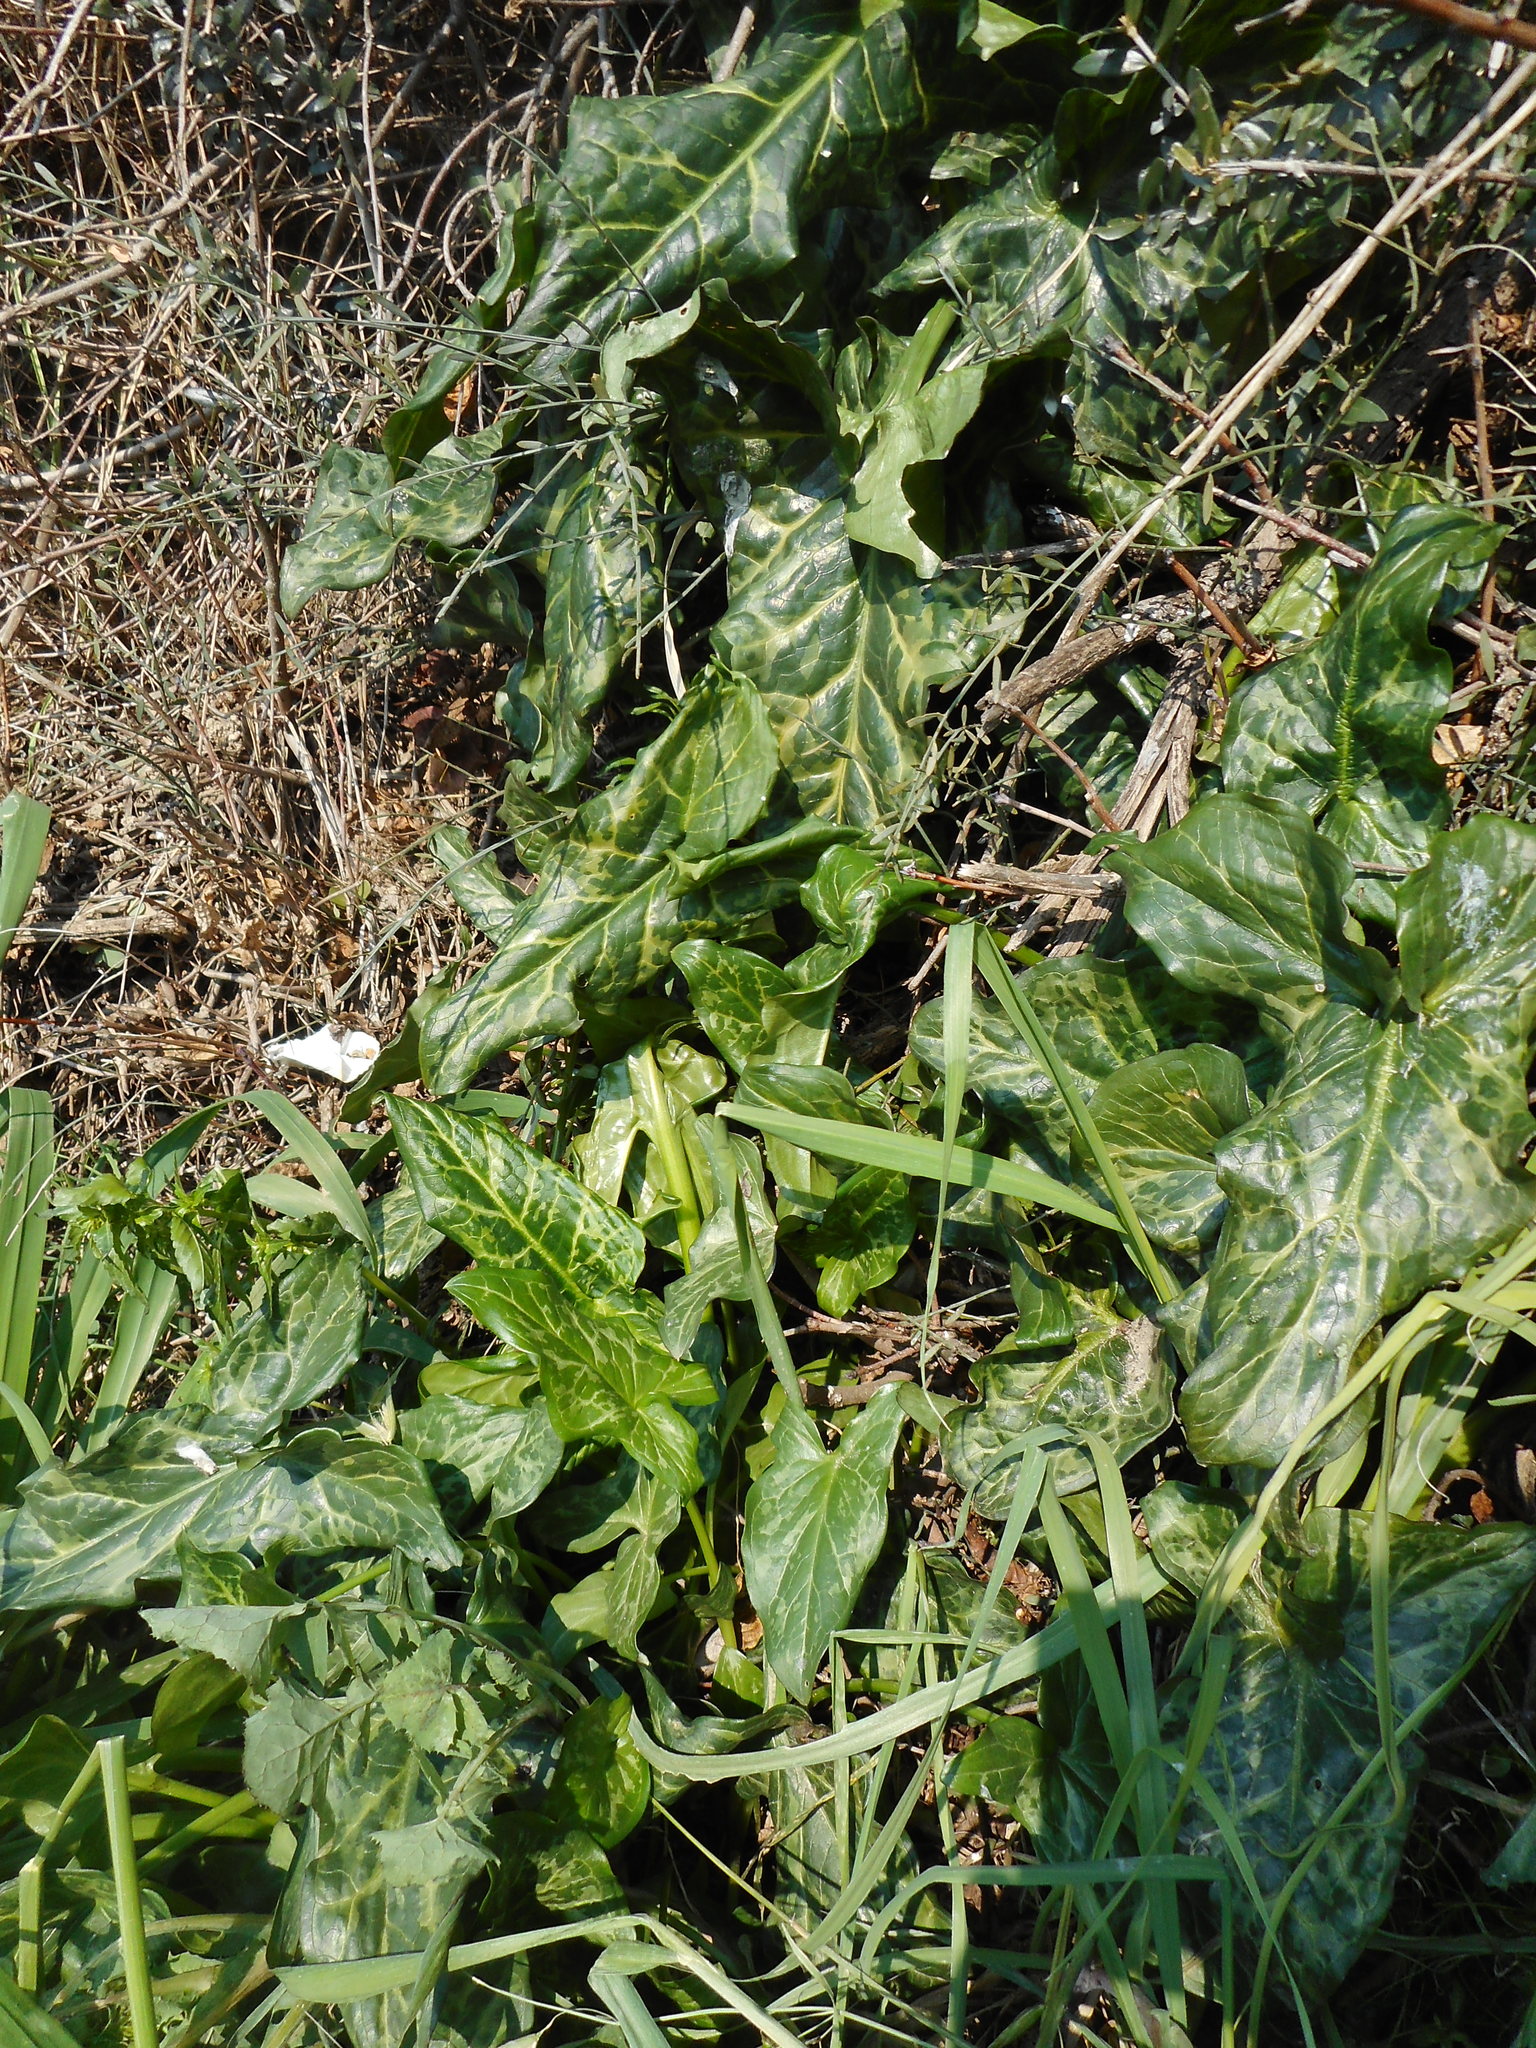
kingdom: Plantae
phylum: Tracheophyta
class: Liliopsida
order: Alismatales
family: Araceae
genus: Arum
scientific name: Arum italicum
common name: Italian lords-and-ladies
